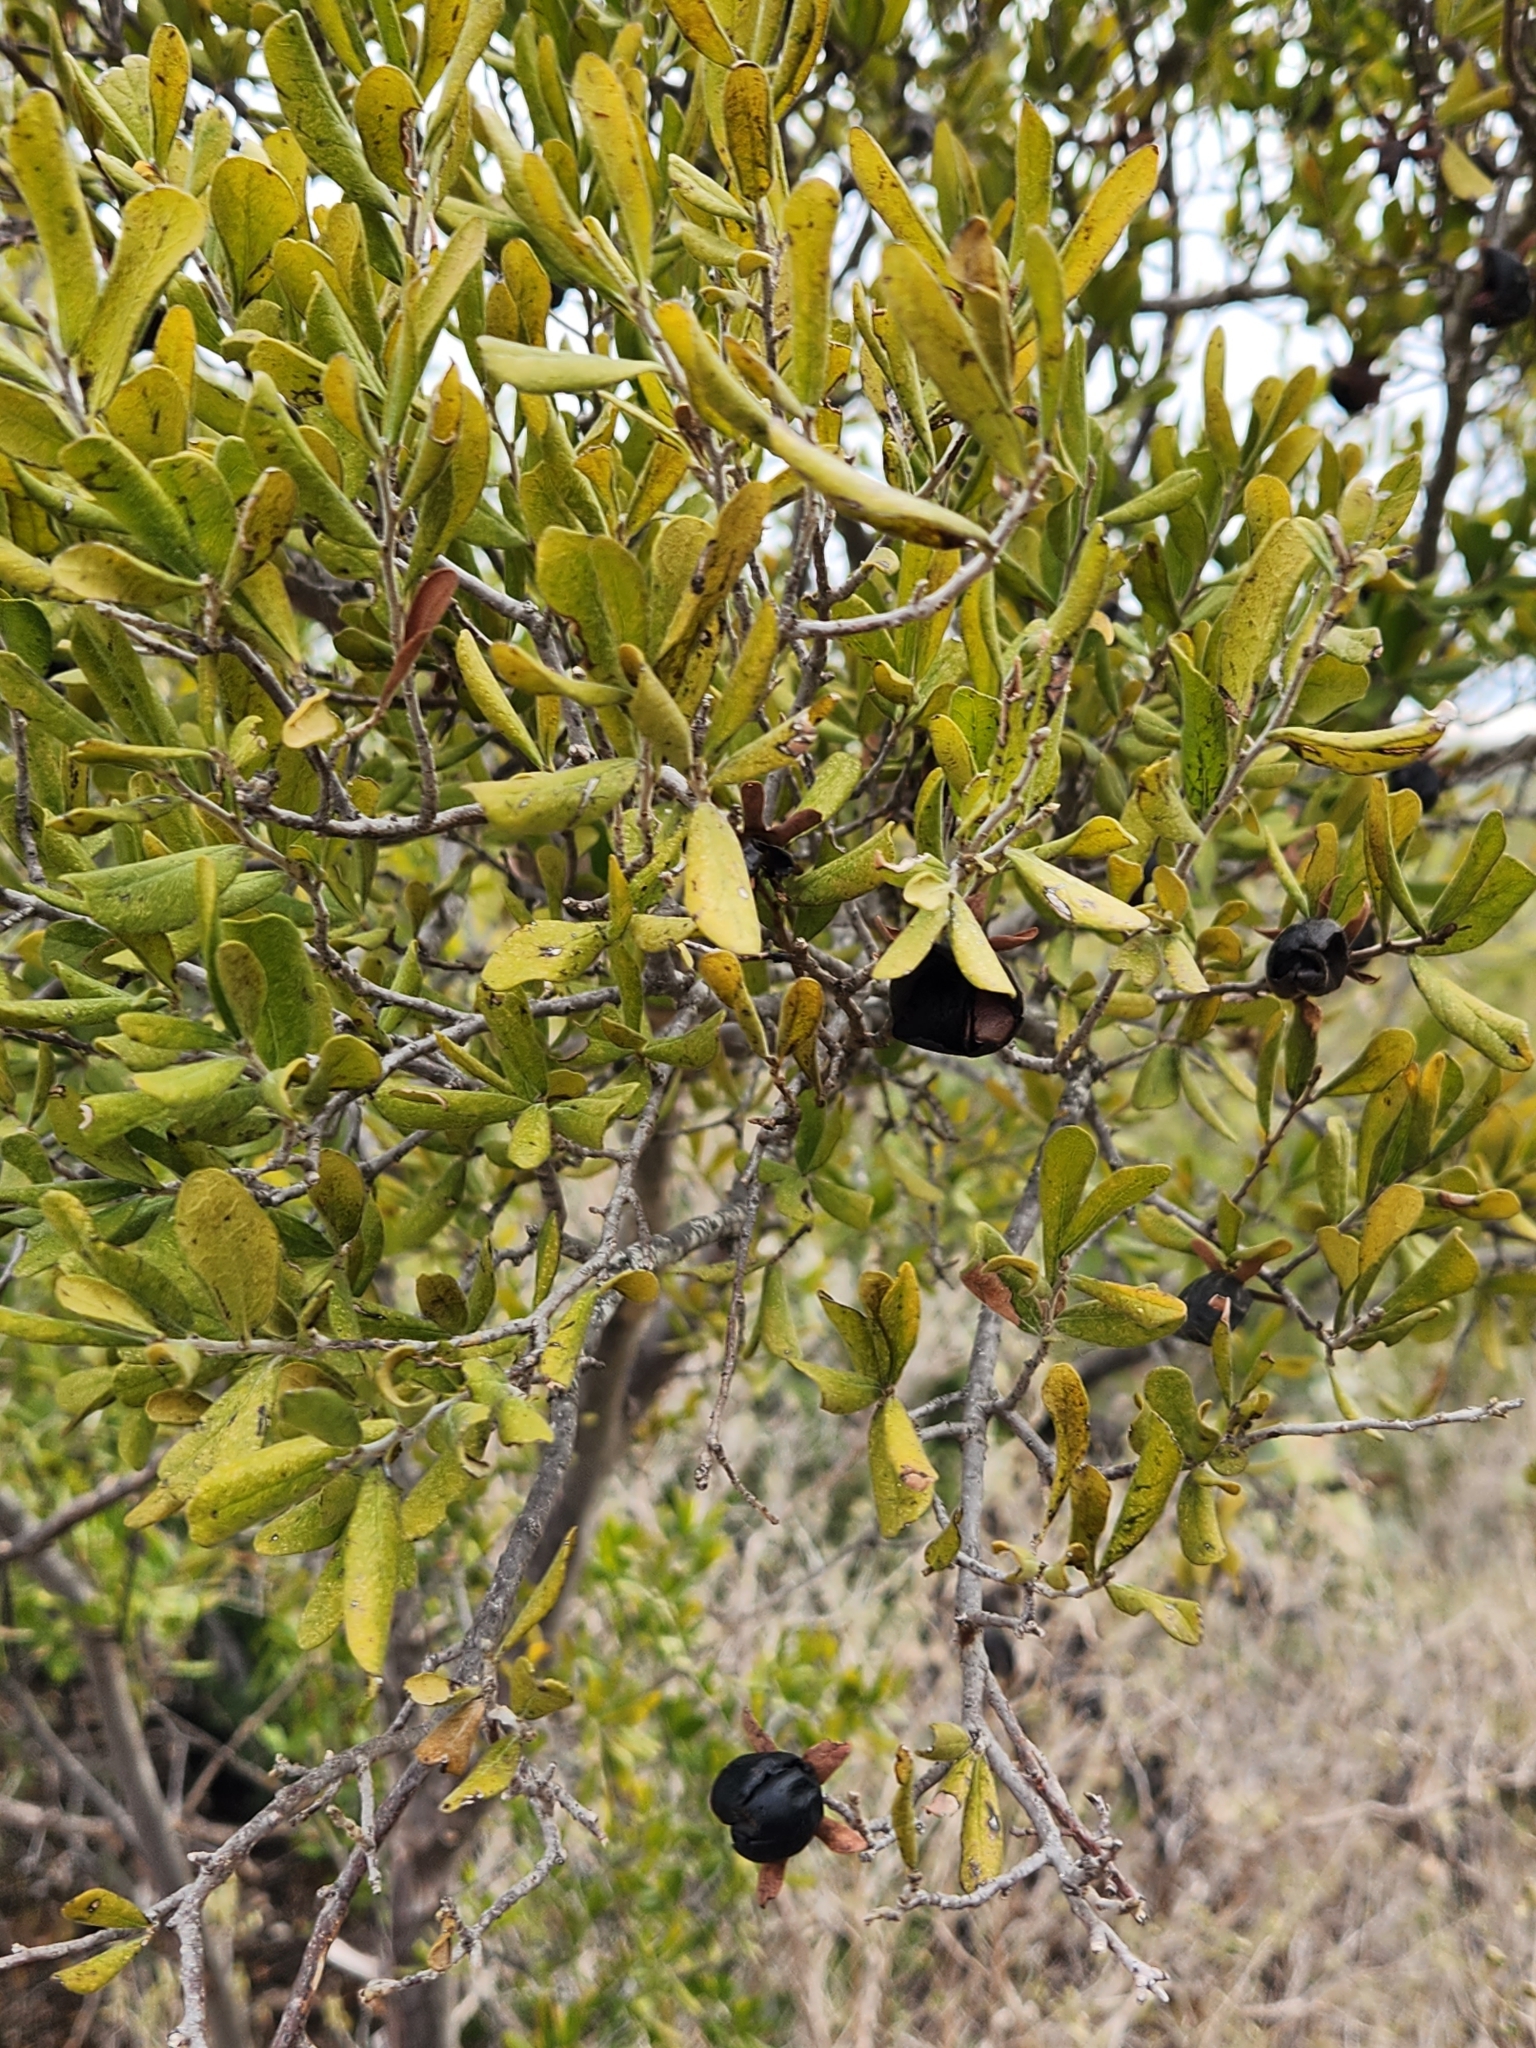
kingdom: Plantae
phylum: Tracheophyta
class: Magnoliopsida
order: Ericales
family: Ebenaceae
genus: Diospyros
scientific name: Diospyros texana
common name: Texas persimmon
